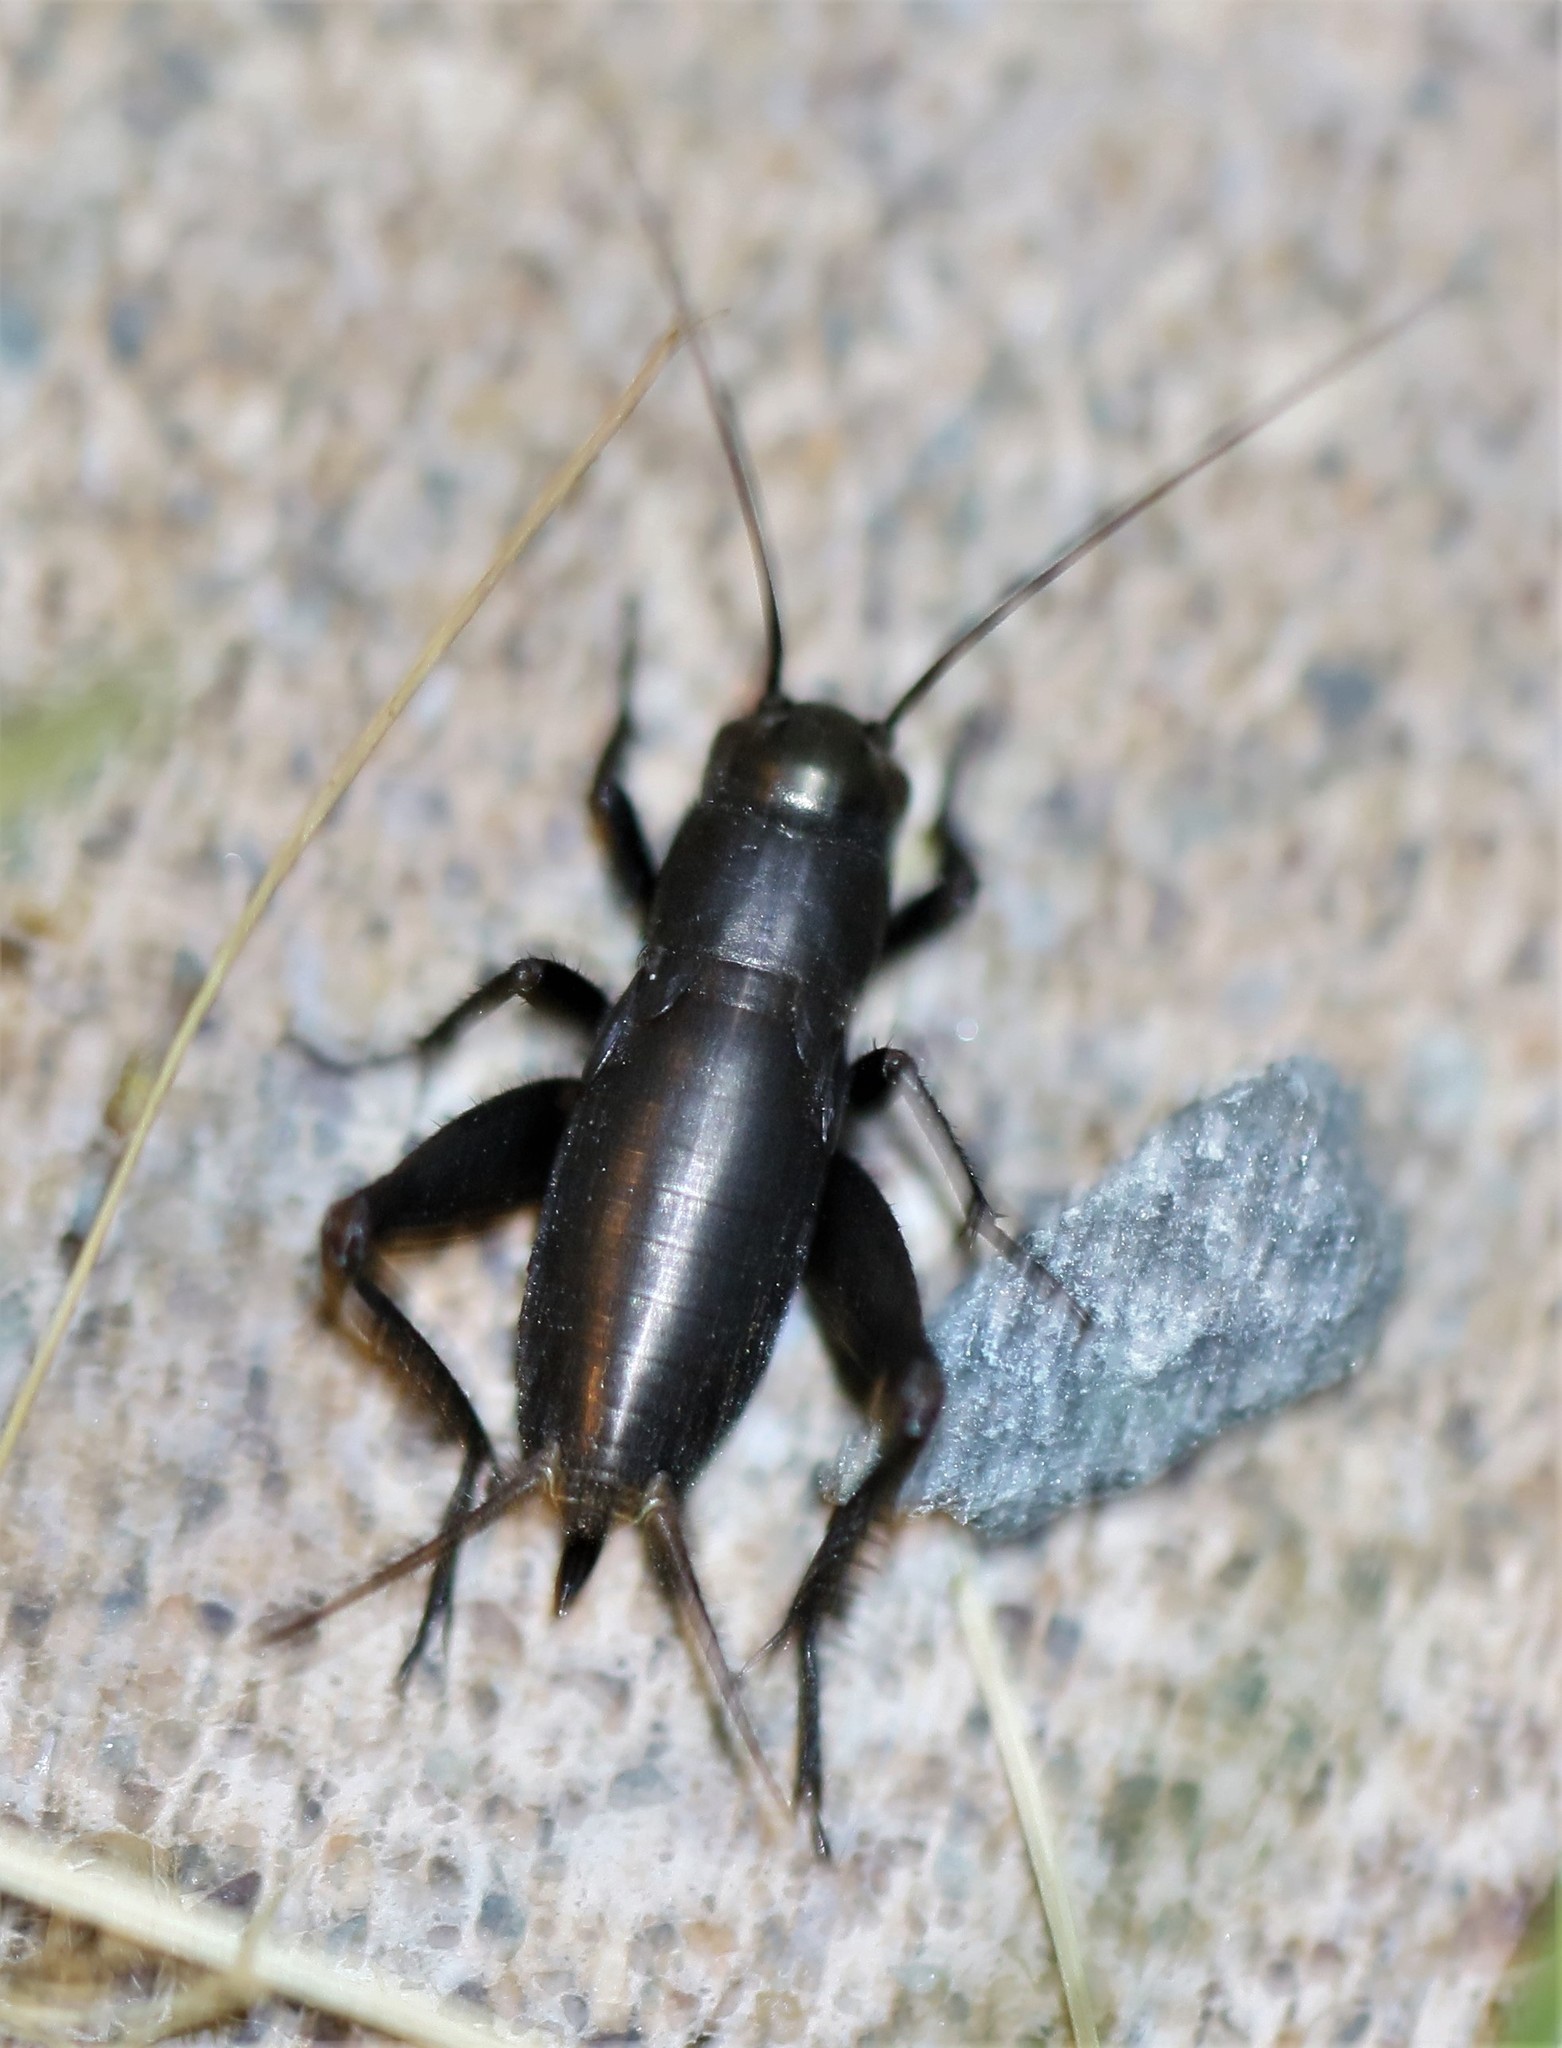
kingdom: Animalia
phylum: Arthropoda
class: Insecta
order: Orthoptera
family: Gryllidae
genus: Gryllus
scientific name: Gryllus pennsylvanicus
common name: Fall field cricket
